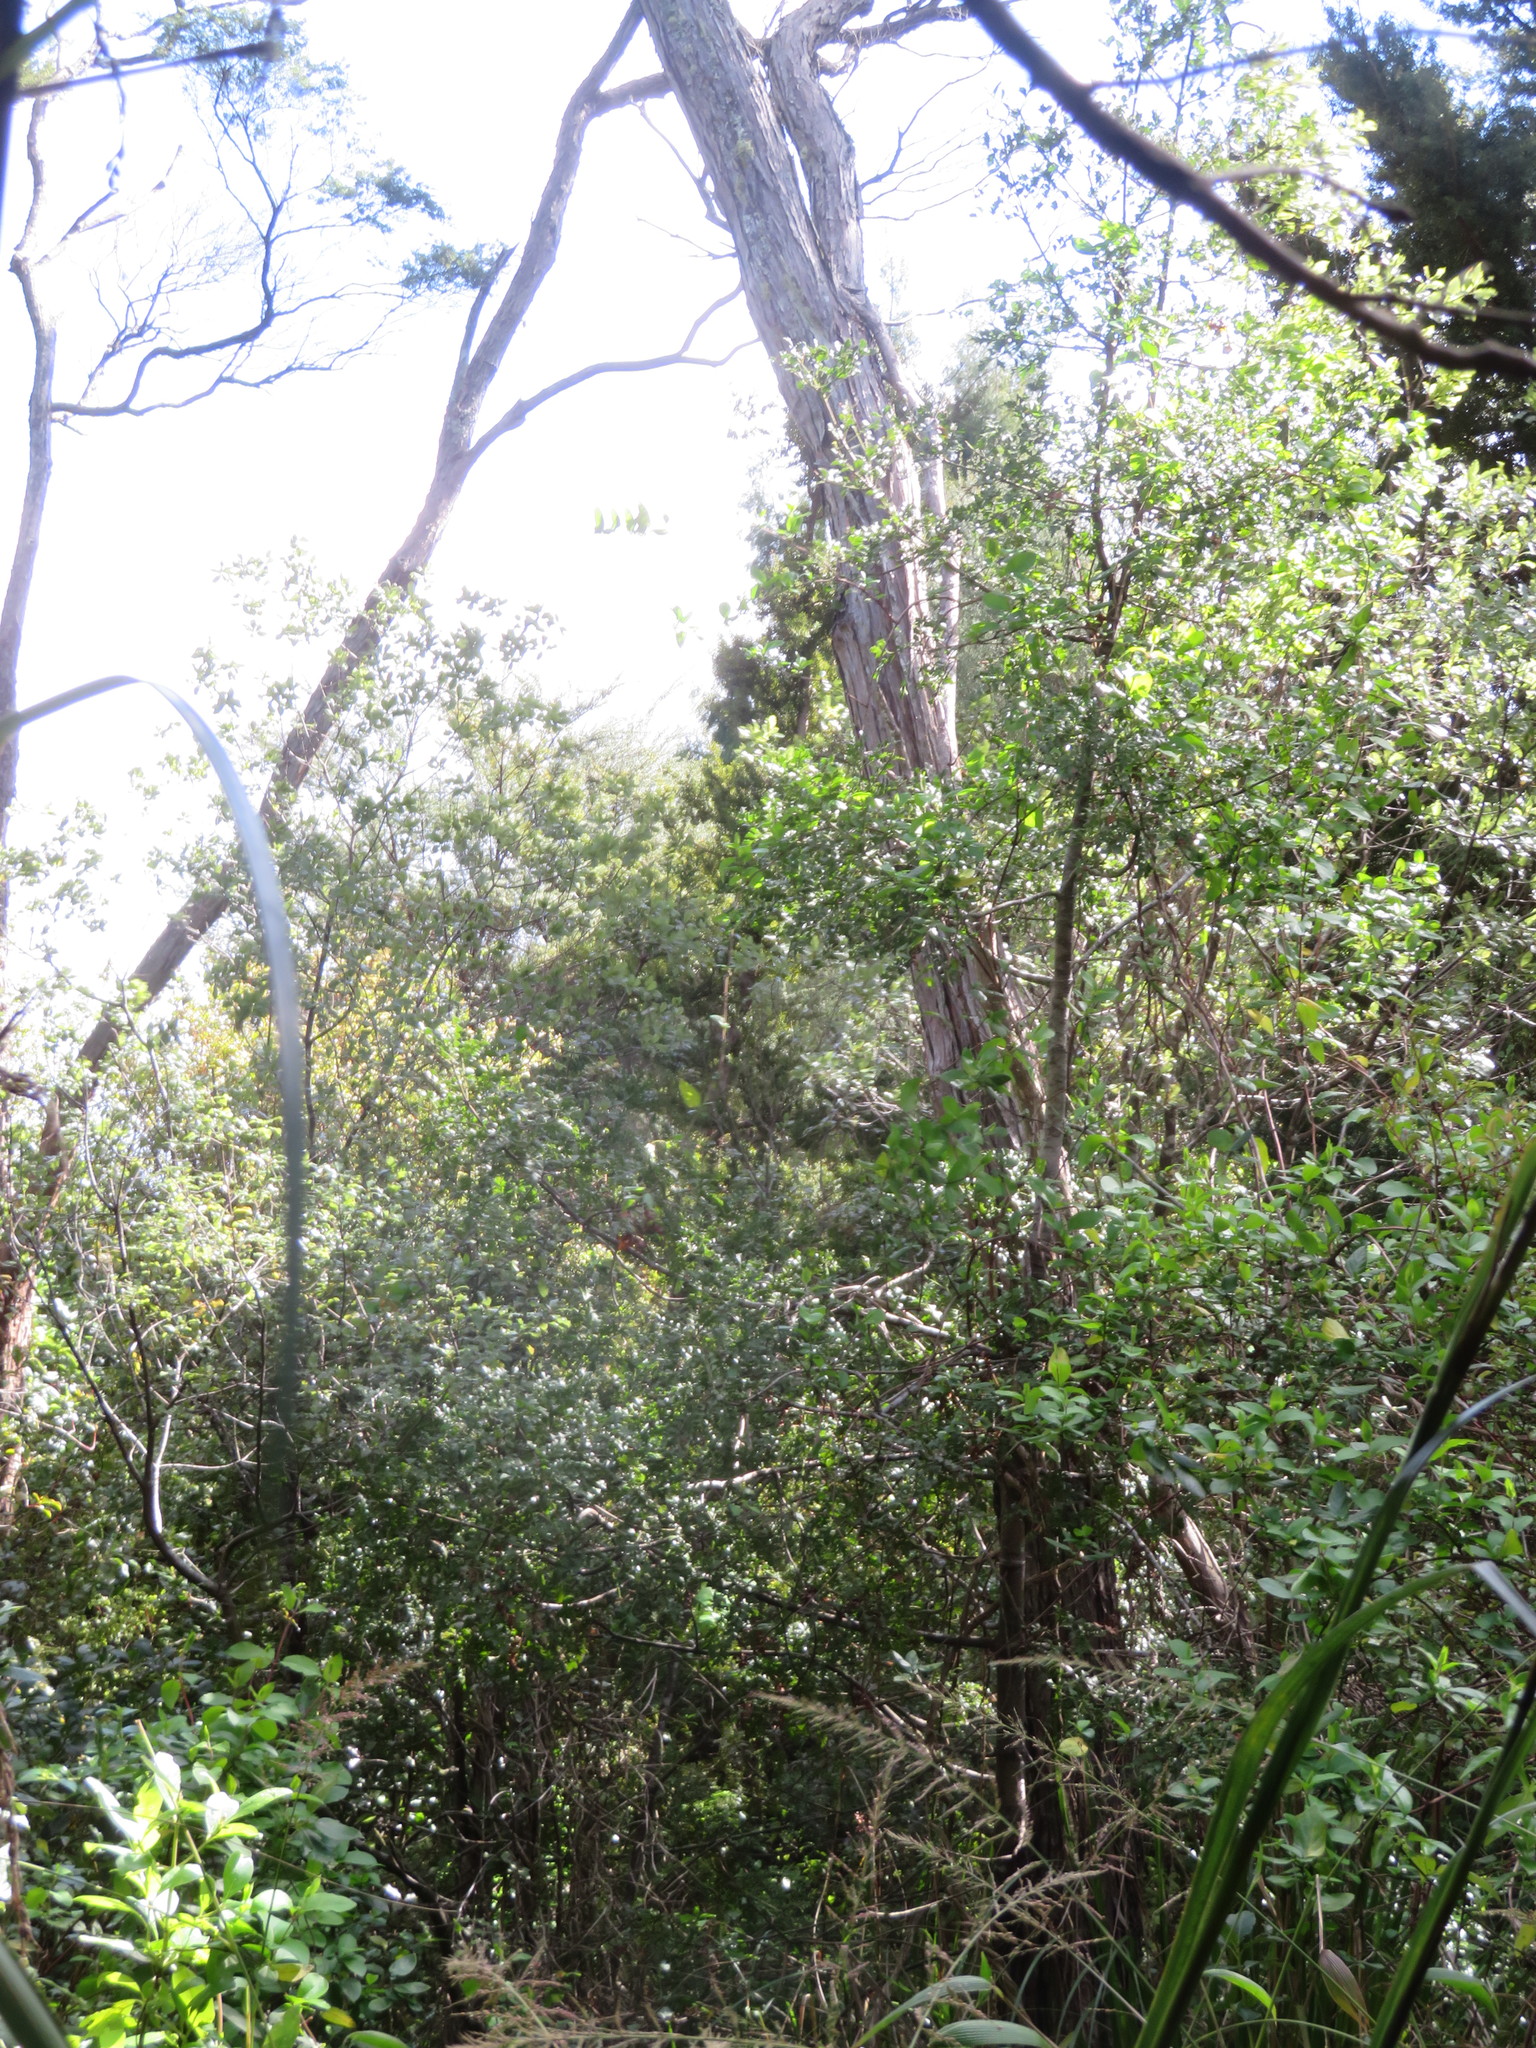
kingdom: Plantae
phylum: Tracheophyta
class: Pinopsida
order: Pinales
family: Phyllocladaceae
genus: Phyllocladus
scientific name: Phyllocladus trichomanoides
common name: Celery pine
